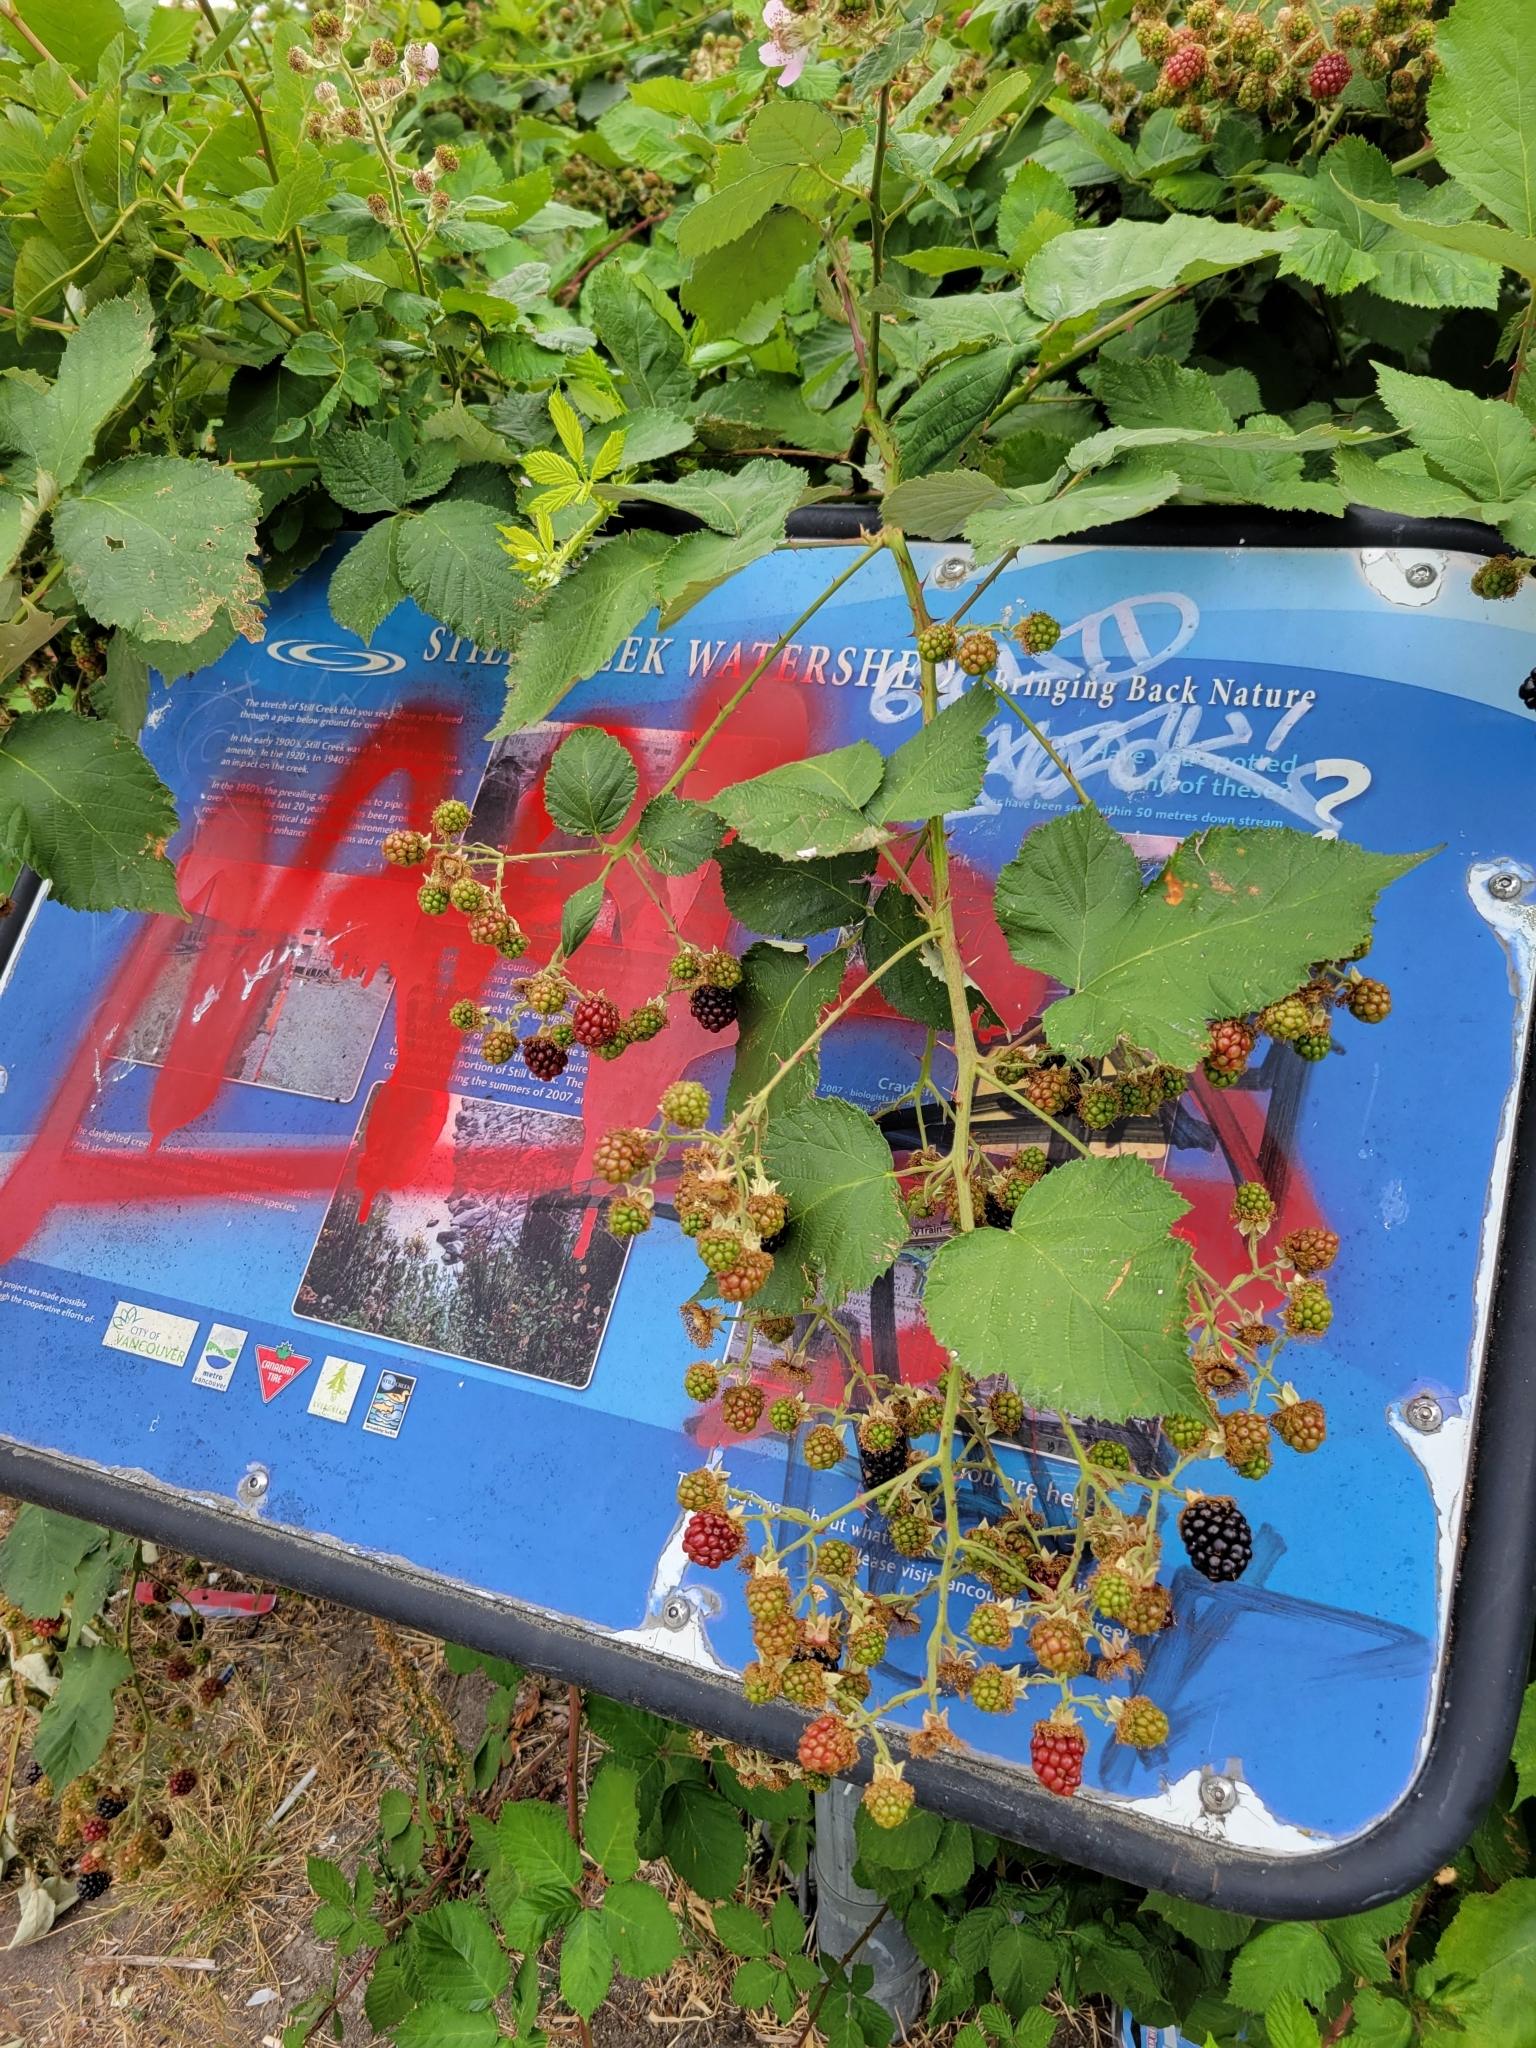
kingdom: Plantae
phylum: Tracheophyta
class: Magnoliopsida
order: Rosales
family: Rosaceae
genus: Rubus
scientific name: Rubus armeniacus
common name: Himalayan blackberry
